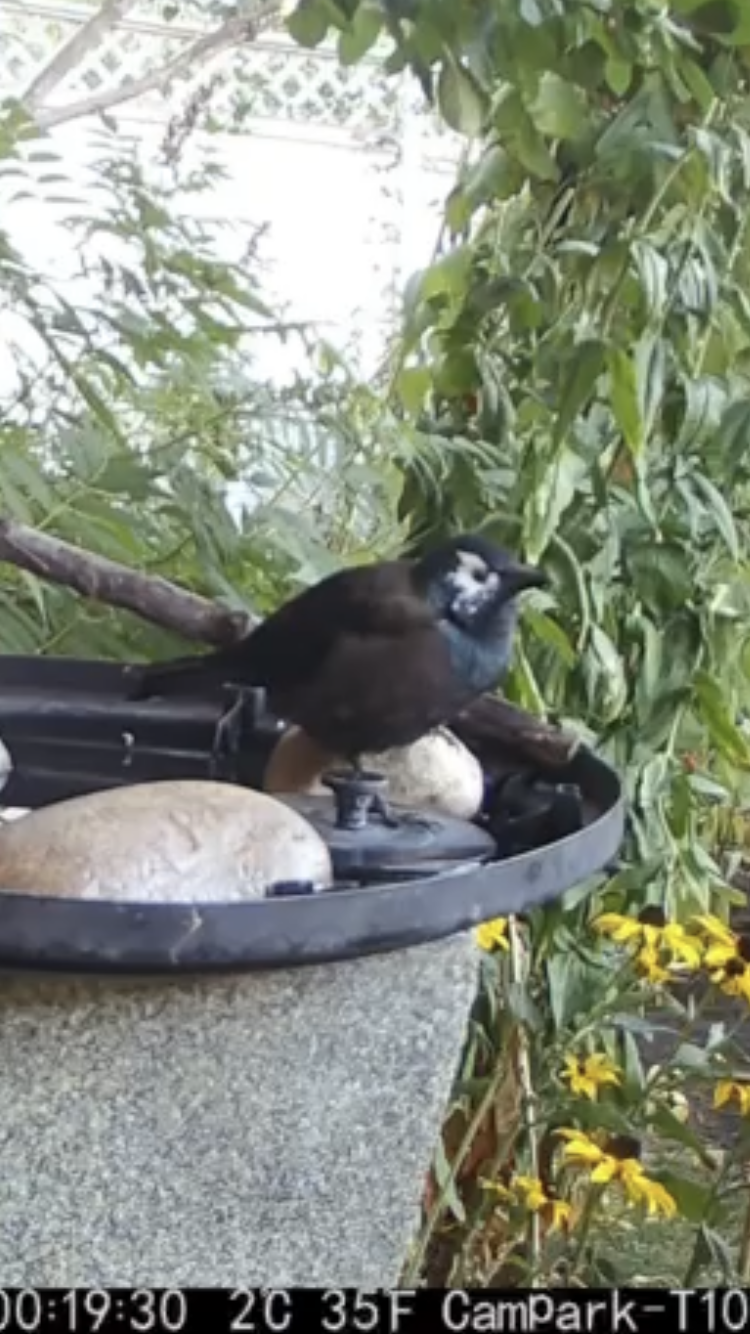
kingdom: Animalia
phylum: Chordata
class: Aves
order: Passeriformes
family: Icteridae
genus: Quiscalus
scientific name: Quiscalus quiscula
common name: Common grackle
